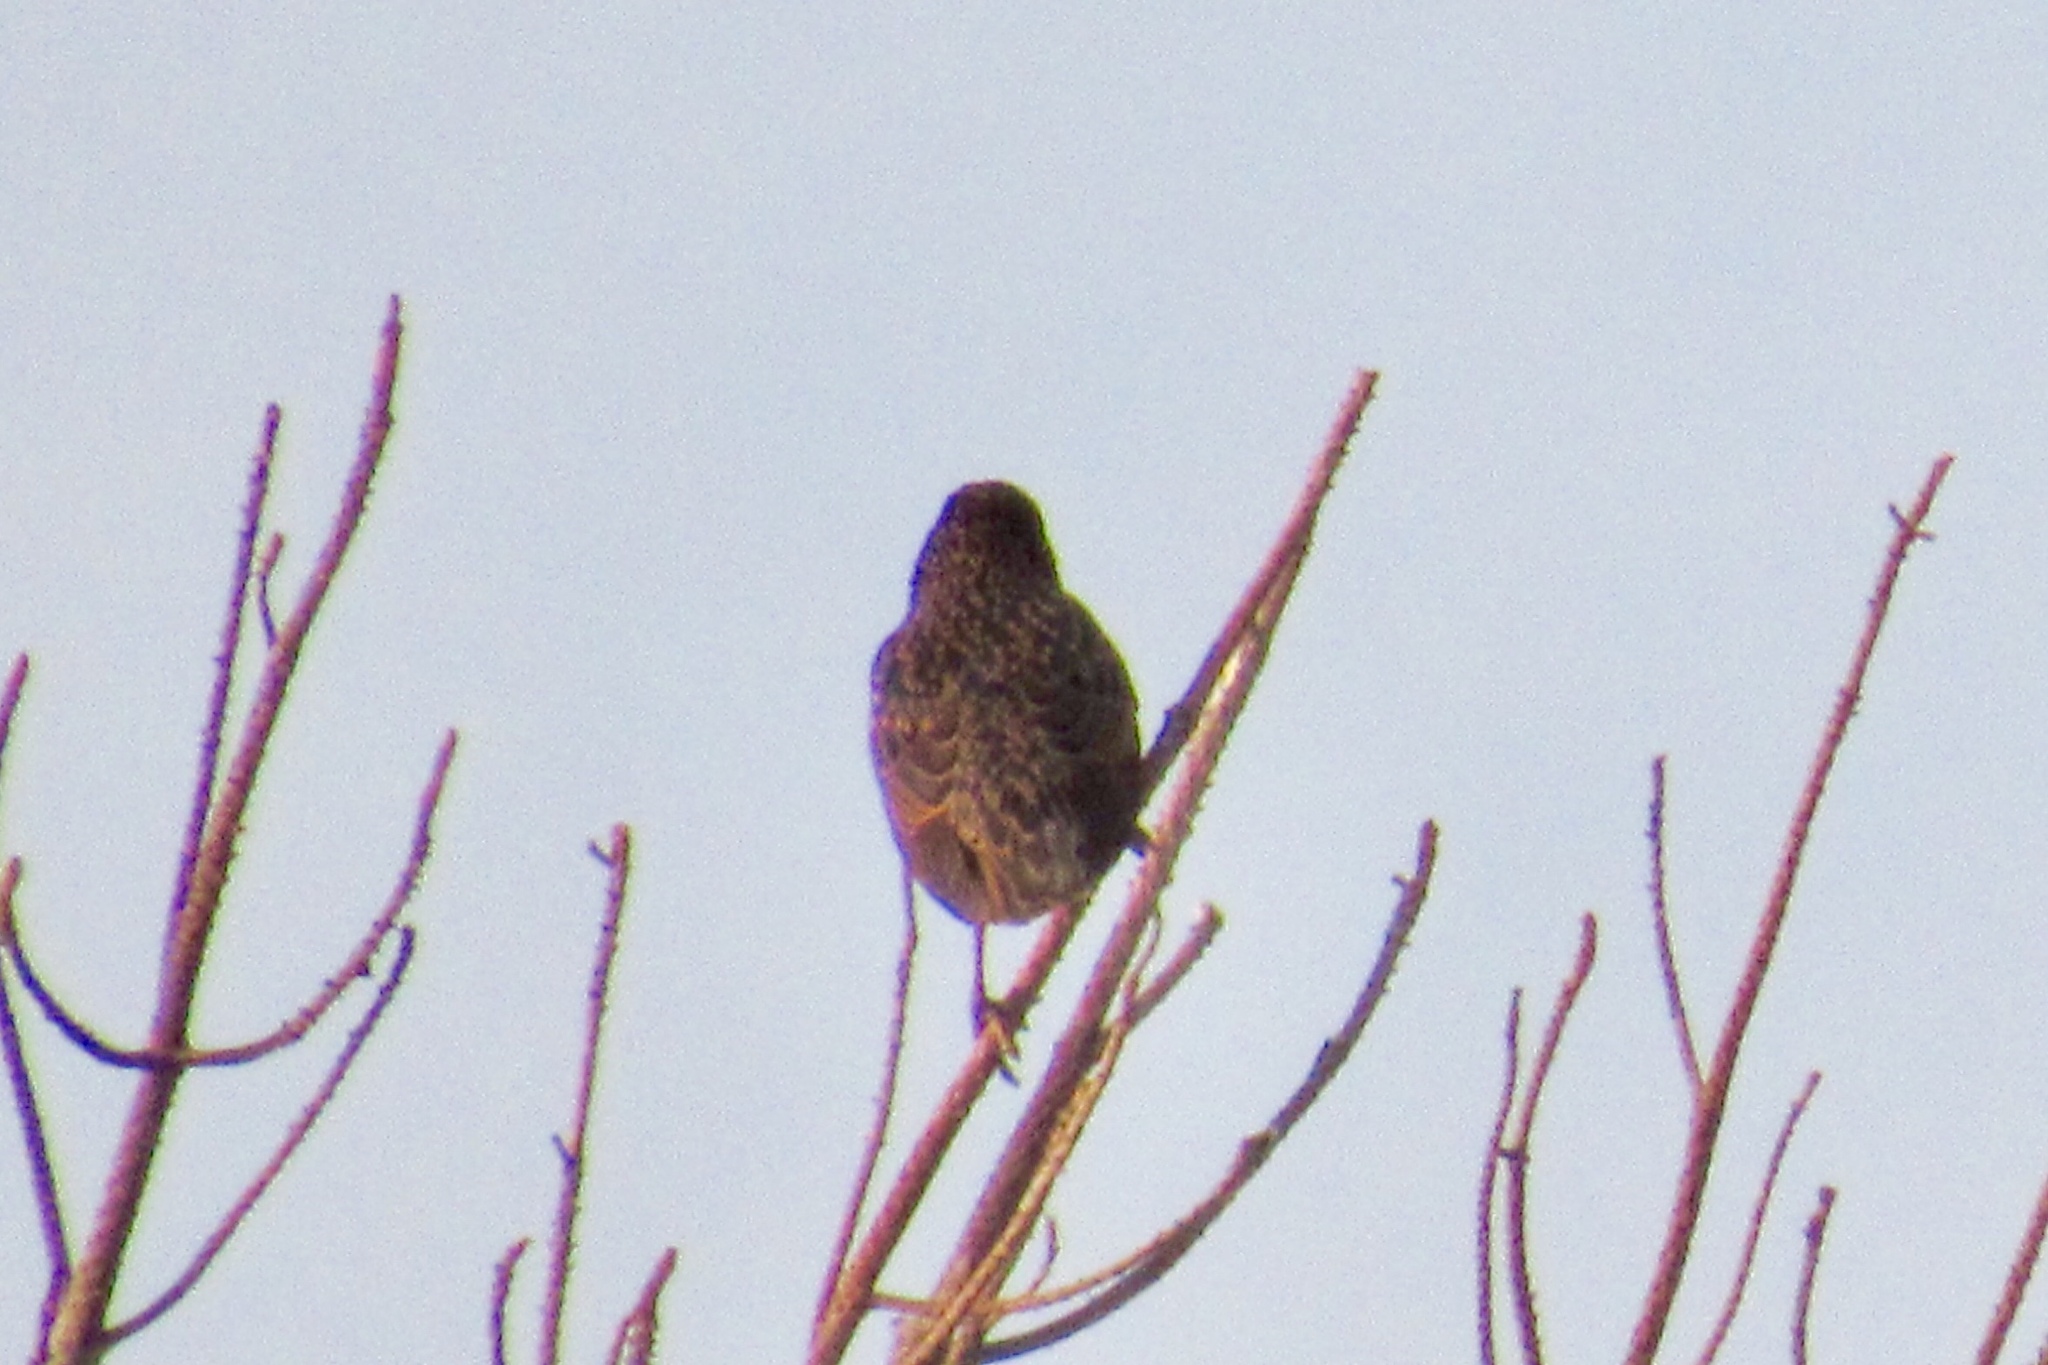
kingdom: Animalia
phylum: Chordata
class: Aves
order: Passeriformes
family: Sturnidae
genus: Sturnus
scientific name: Sturnus vulgaris
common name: Common starling
